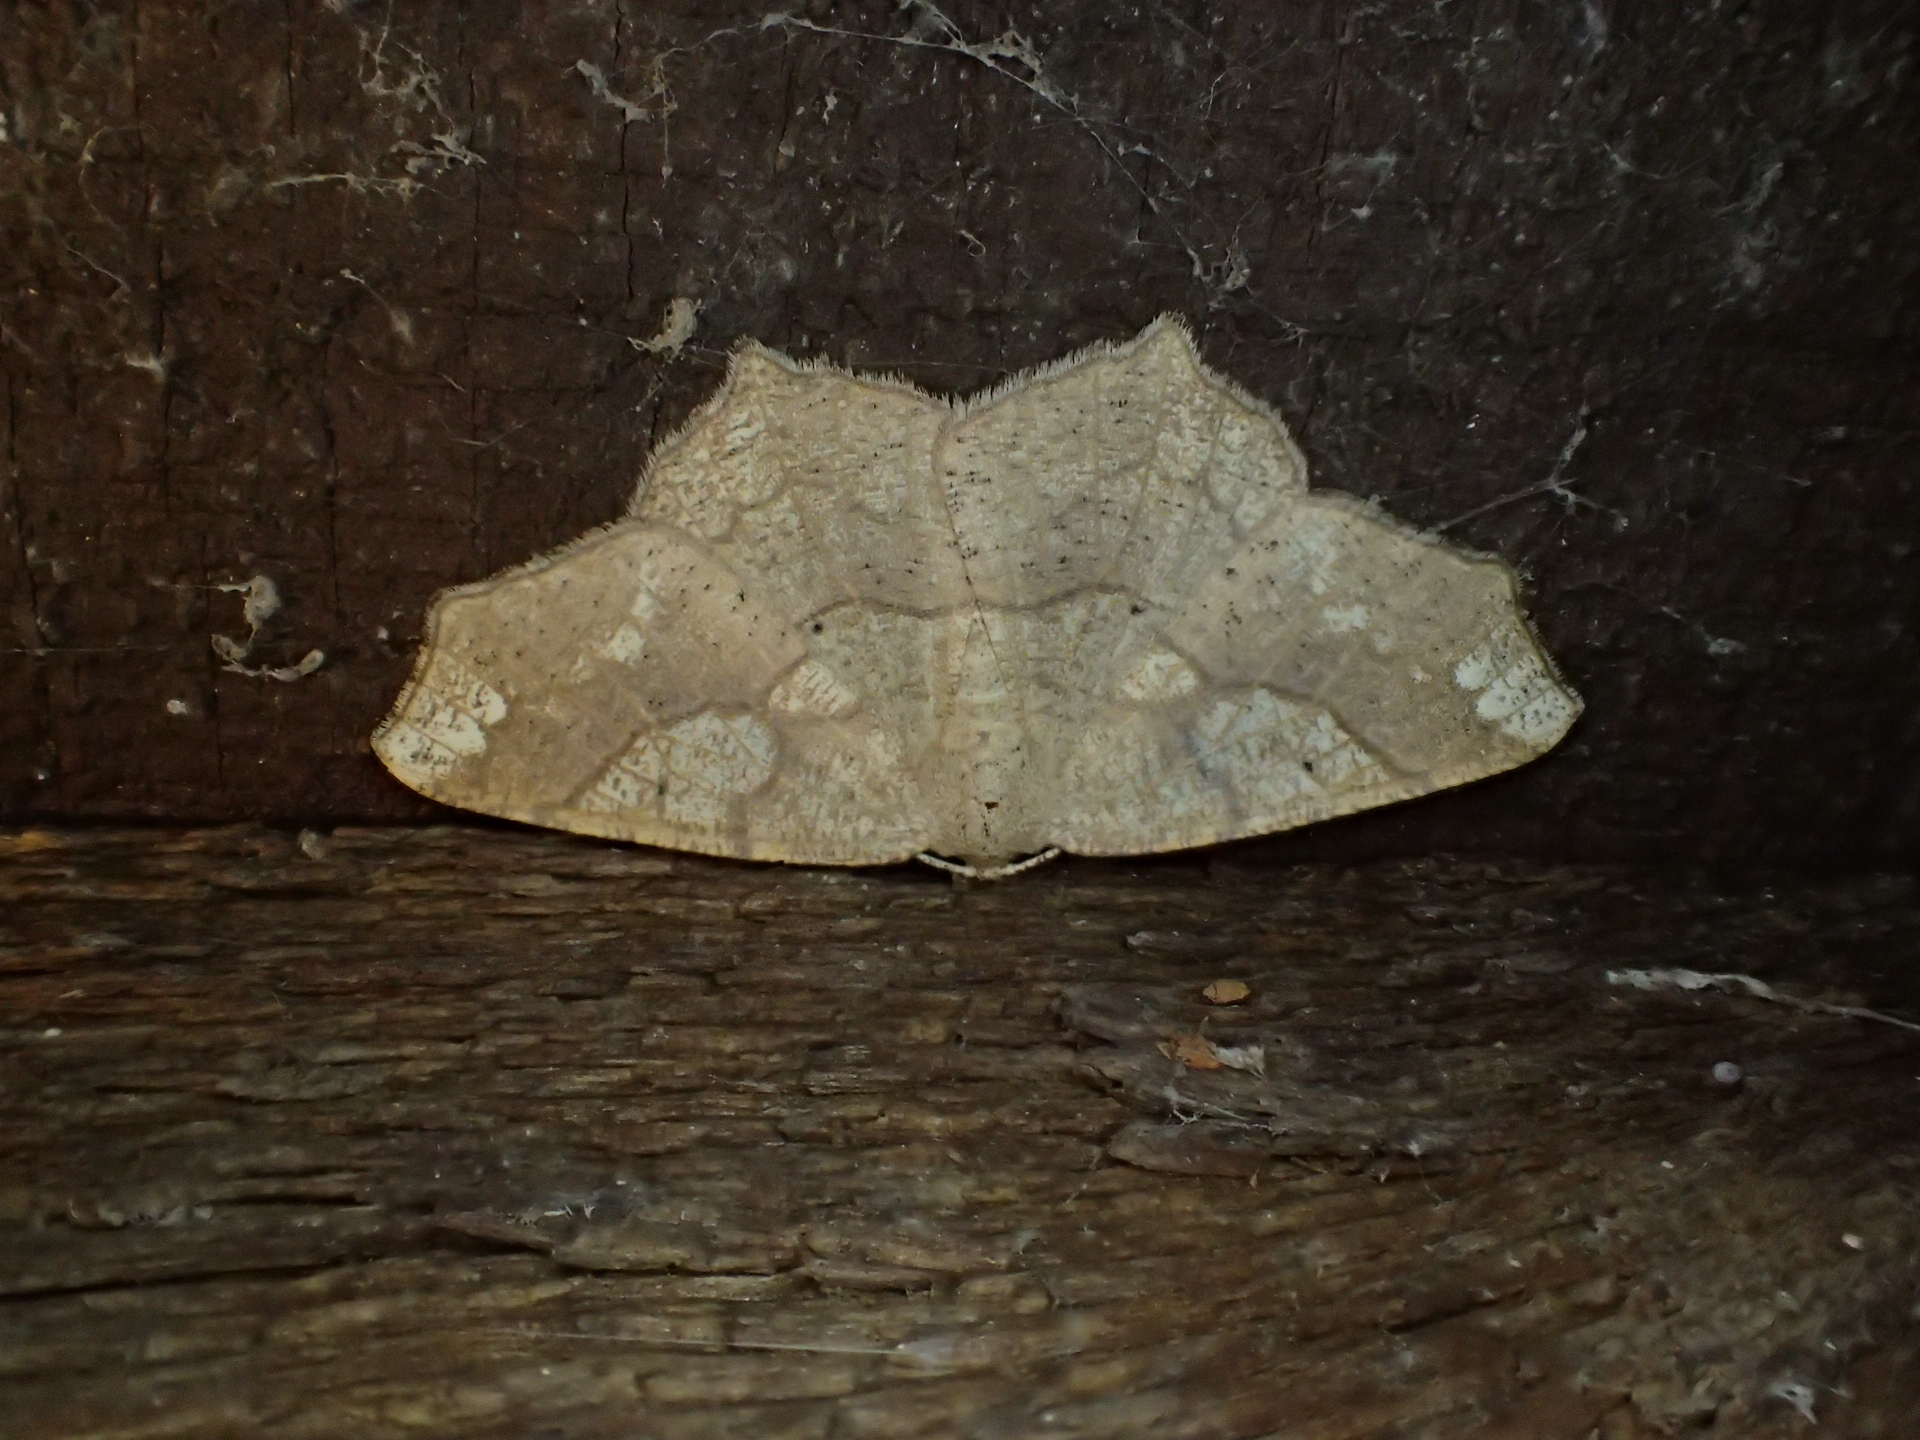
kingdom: Animalia
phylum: Arthropoda
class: Insecta
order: Lepidoptera
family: Geometridae
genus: Besma
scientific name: Besma quercivoraria
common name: Oak besma
